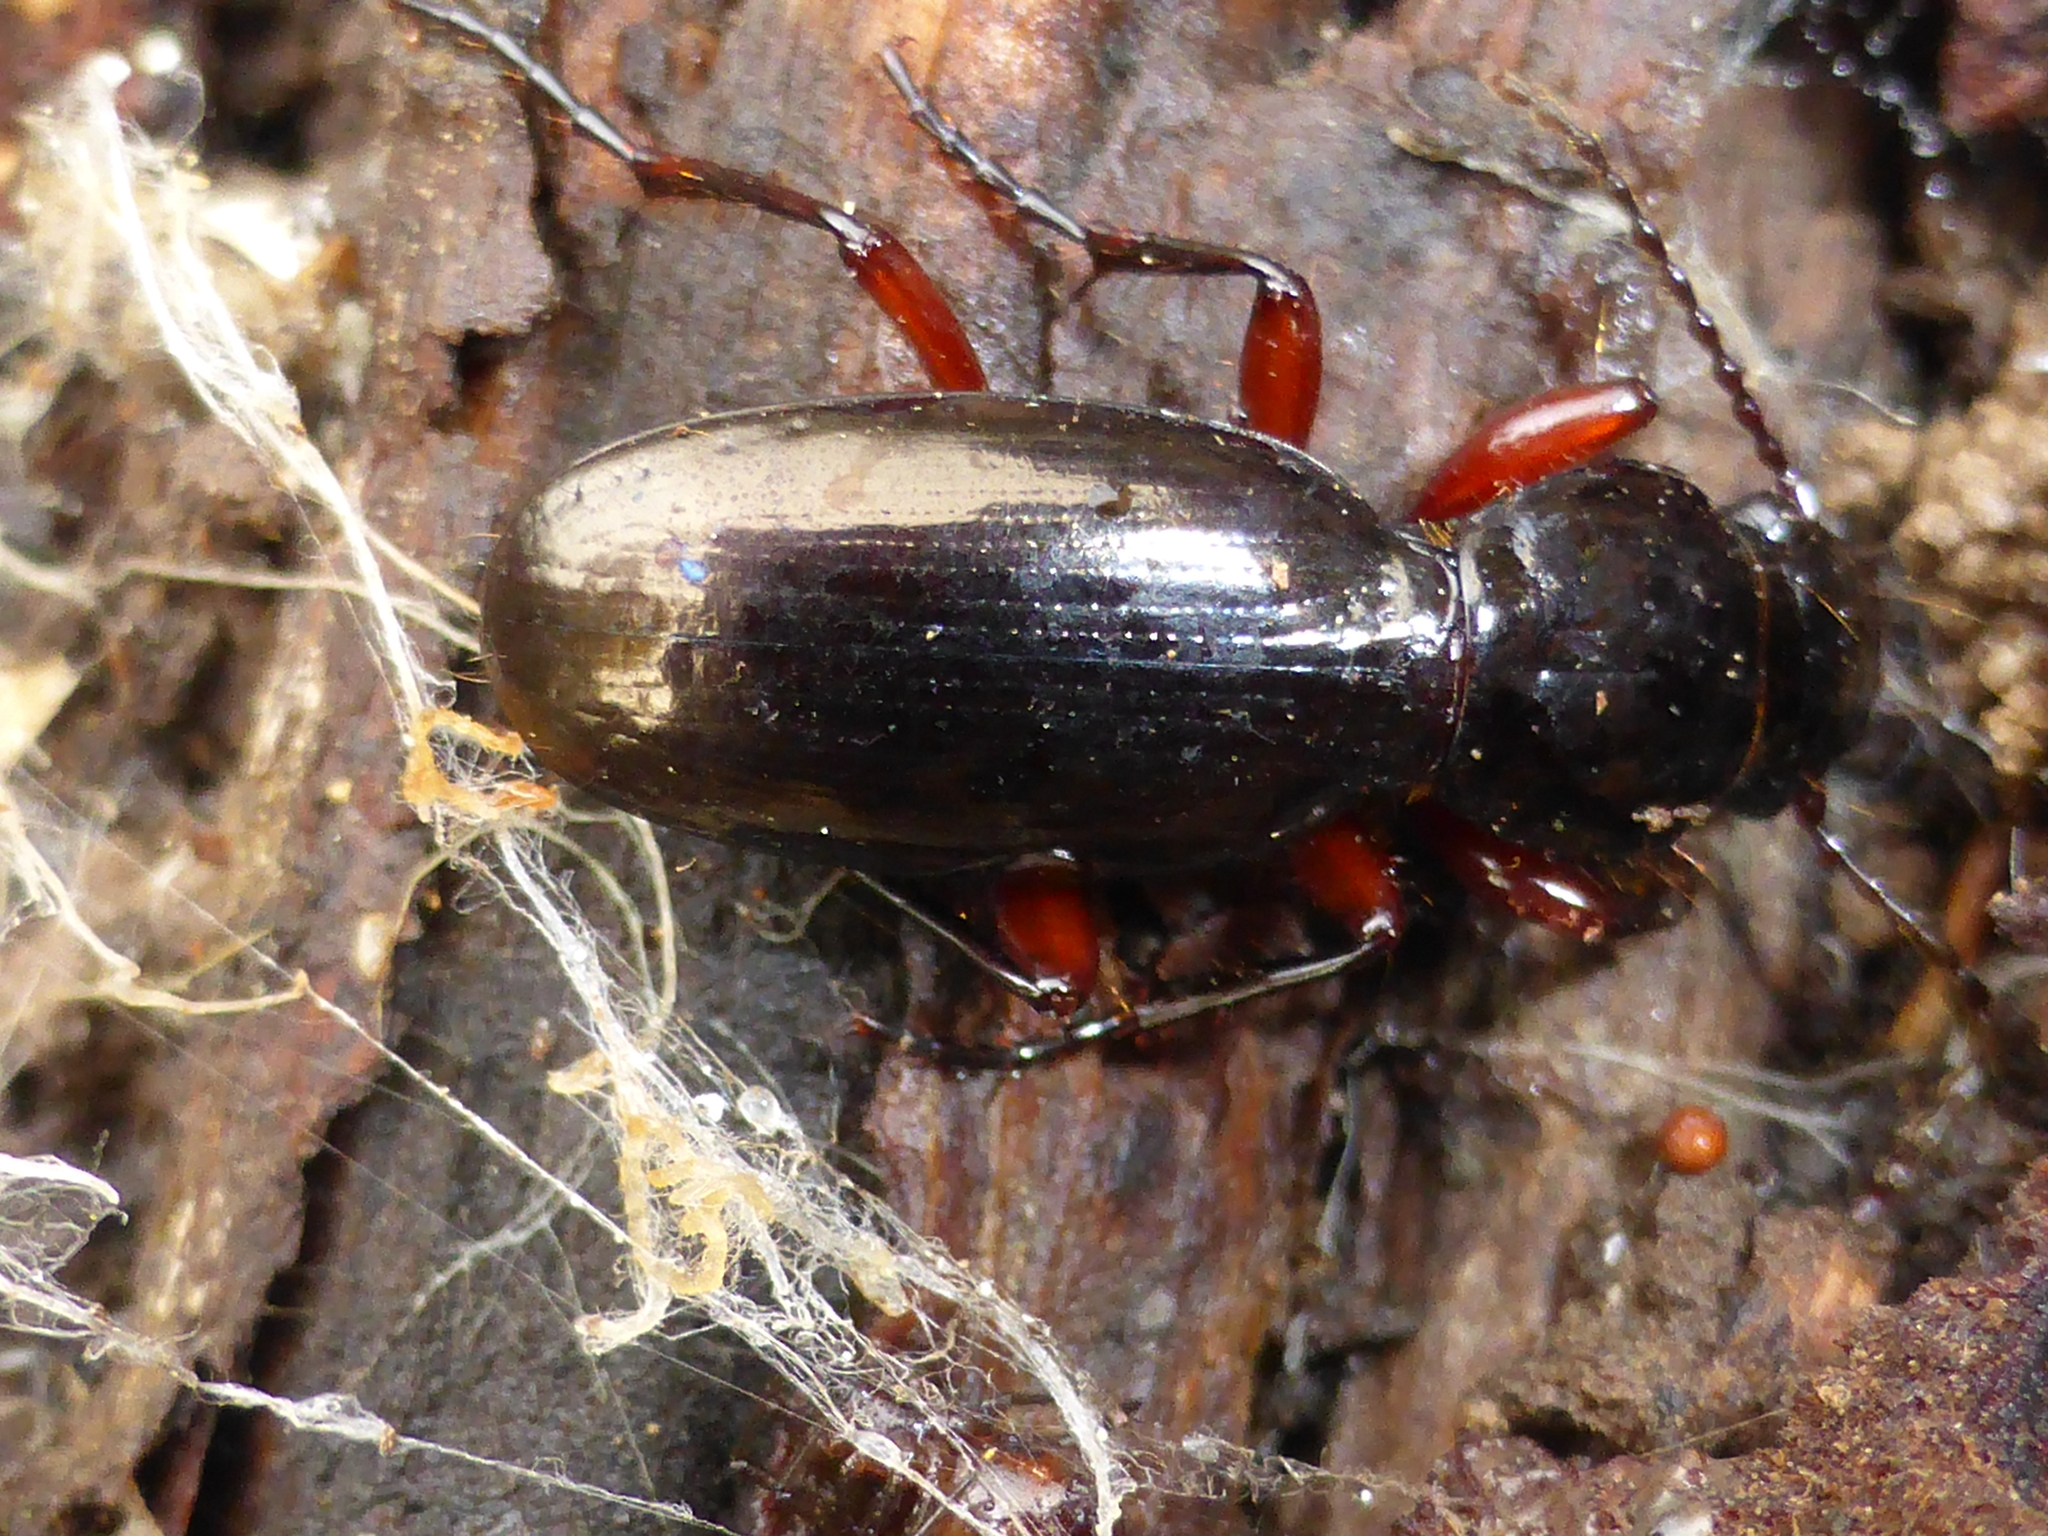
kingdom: Animalia
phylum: Arthropoda
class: Insecta
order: Coleoptera
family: Carabidae
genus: Oregus
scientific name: Oregus aereus
